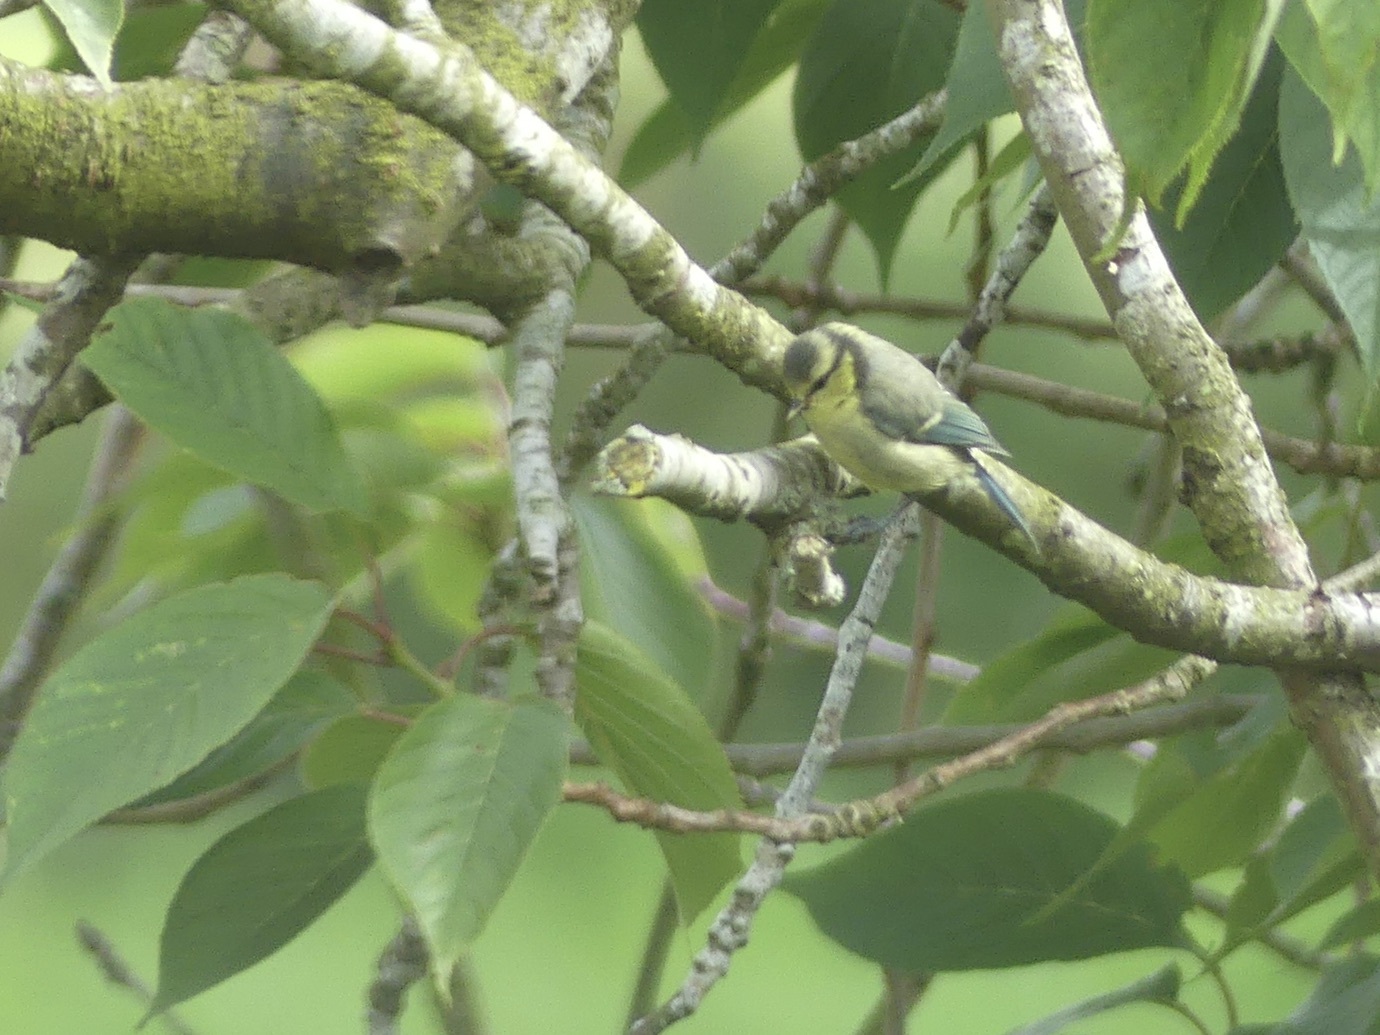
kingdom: Animalia
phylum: Chordata
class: Aves
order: Passeriformes
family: Paridae
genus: Cyanistes
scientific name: Cyanistes caeruleus
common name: Eurasian blue tit
